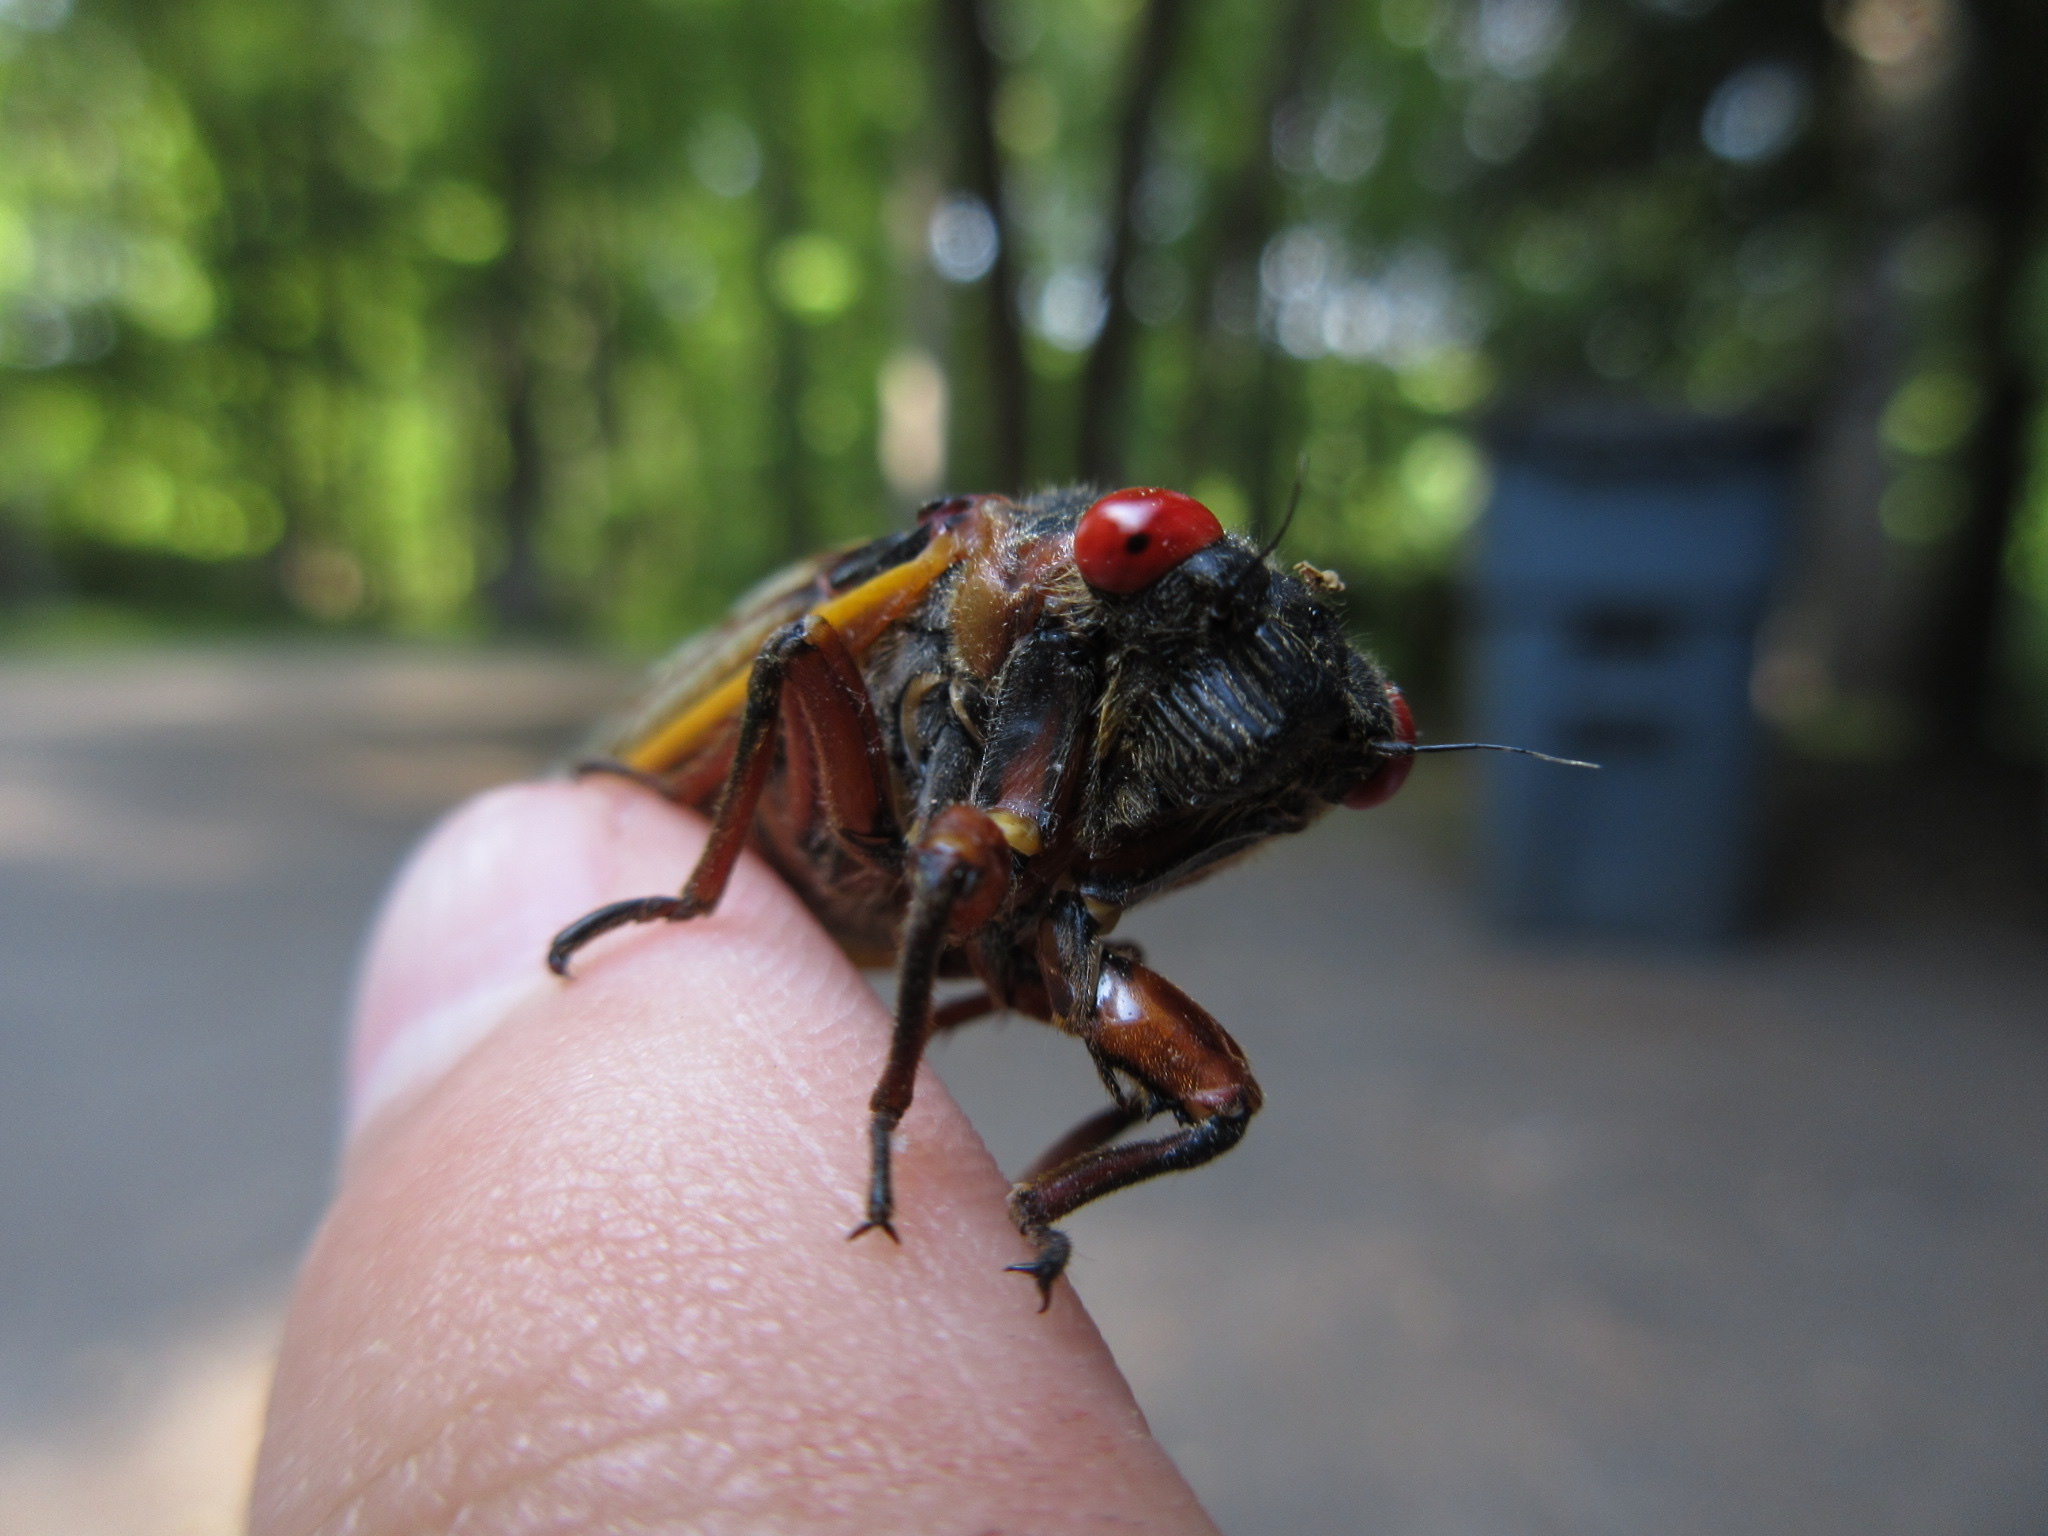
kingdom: Animalia
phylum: Arthropoda
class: Insecta
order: Hemiptera
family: Cicadidae
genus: Magicicada
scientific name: Magicicada septendecim
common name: Periodical cicada
